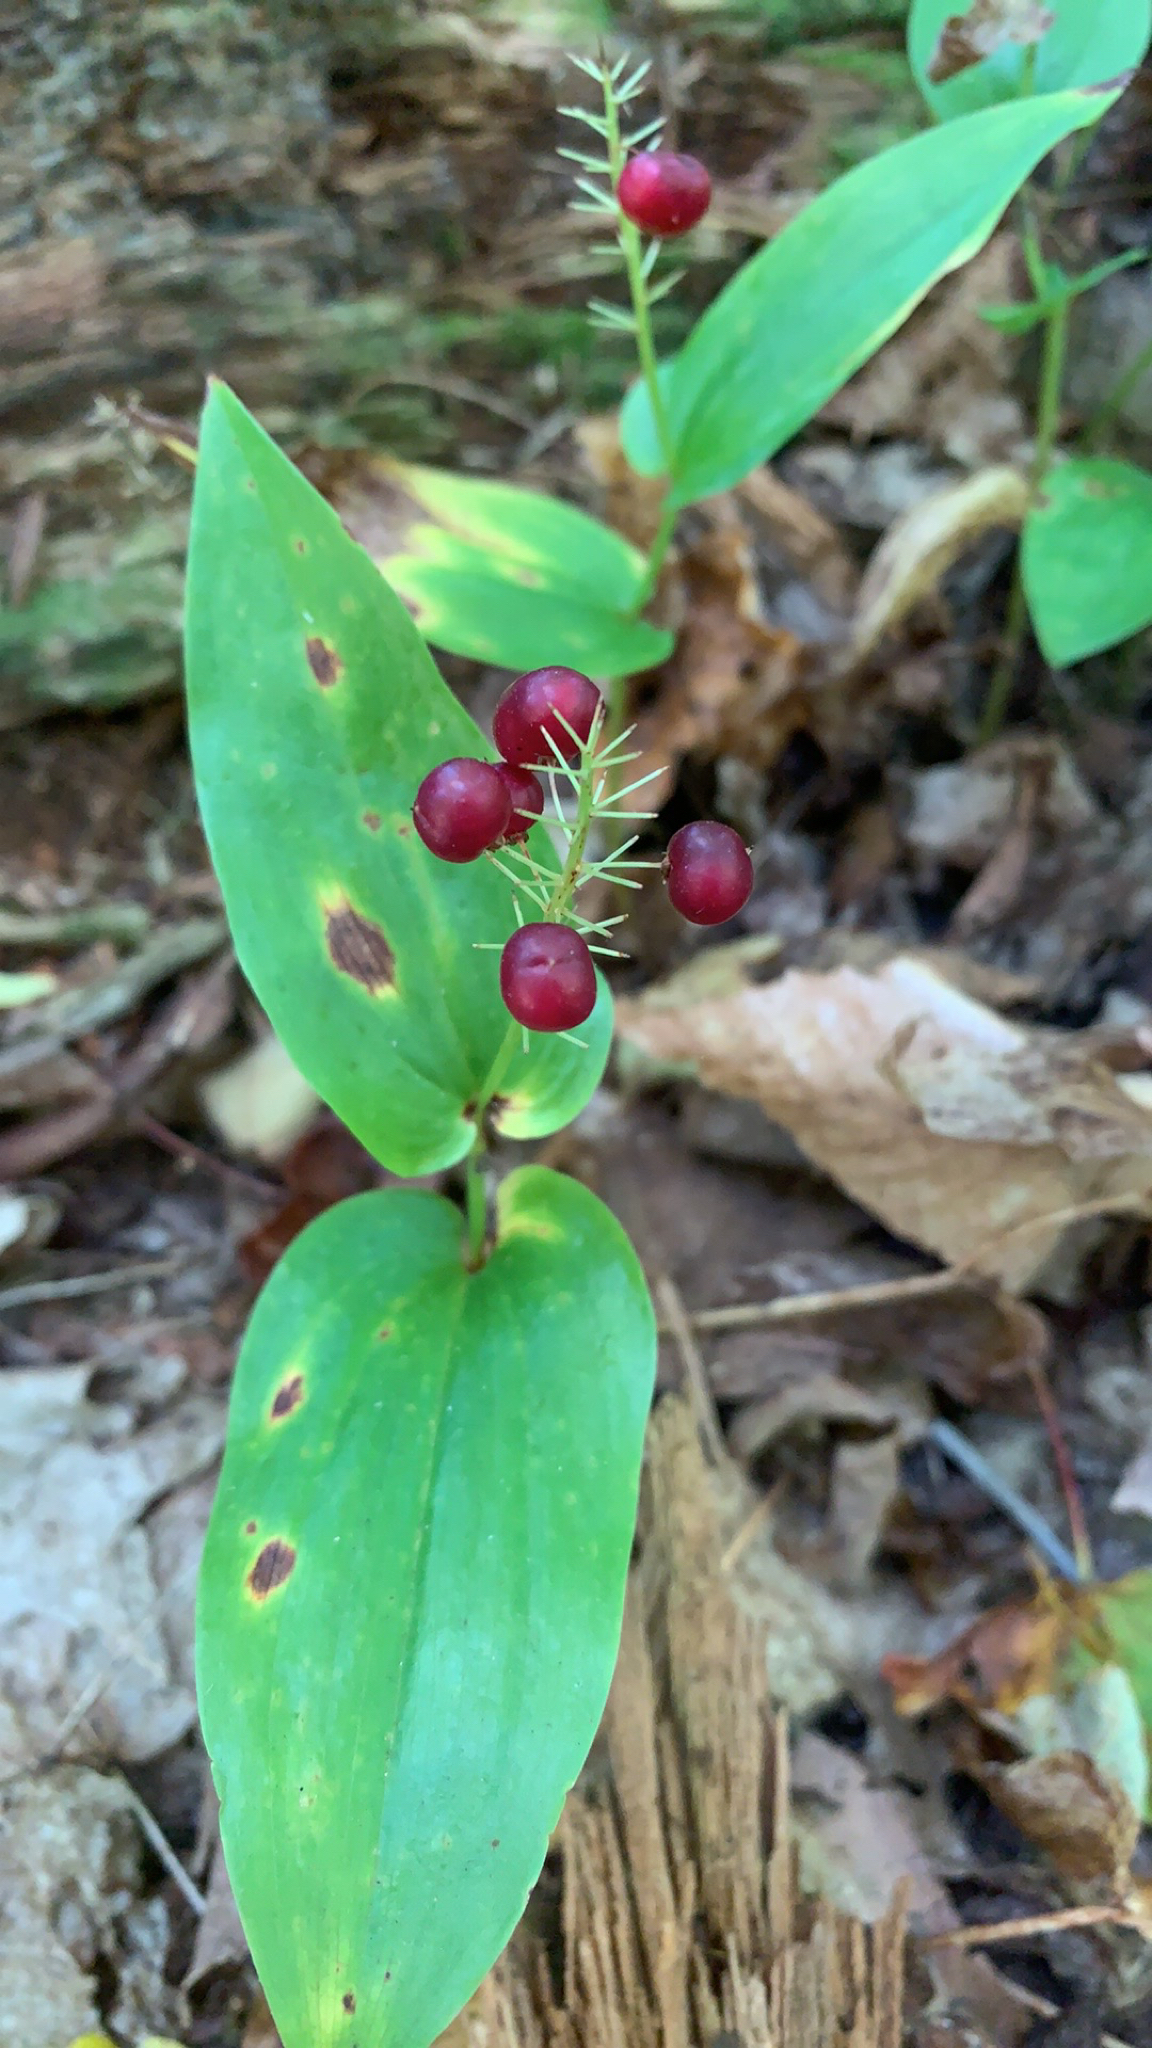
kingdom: Plantae
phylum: Tracheophyta
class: Liliopsida
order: Asparagales
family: Asparagaceae
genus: Maianthemum
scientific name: Maianthemum canadense
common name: False lily-of-the-valley
